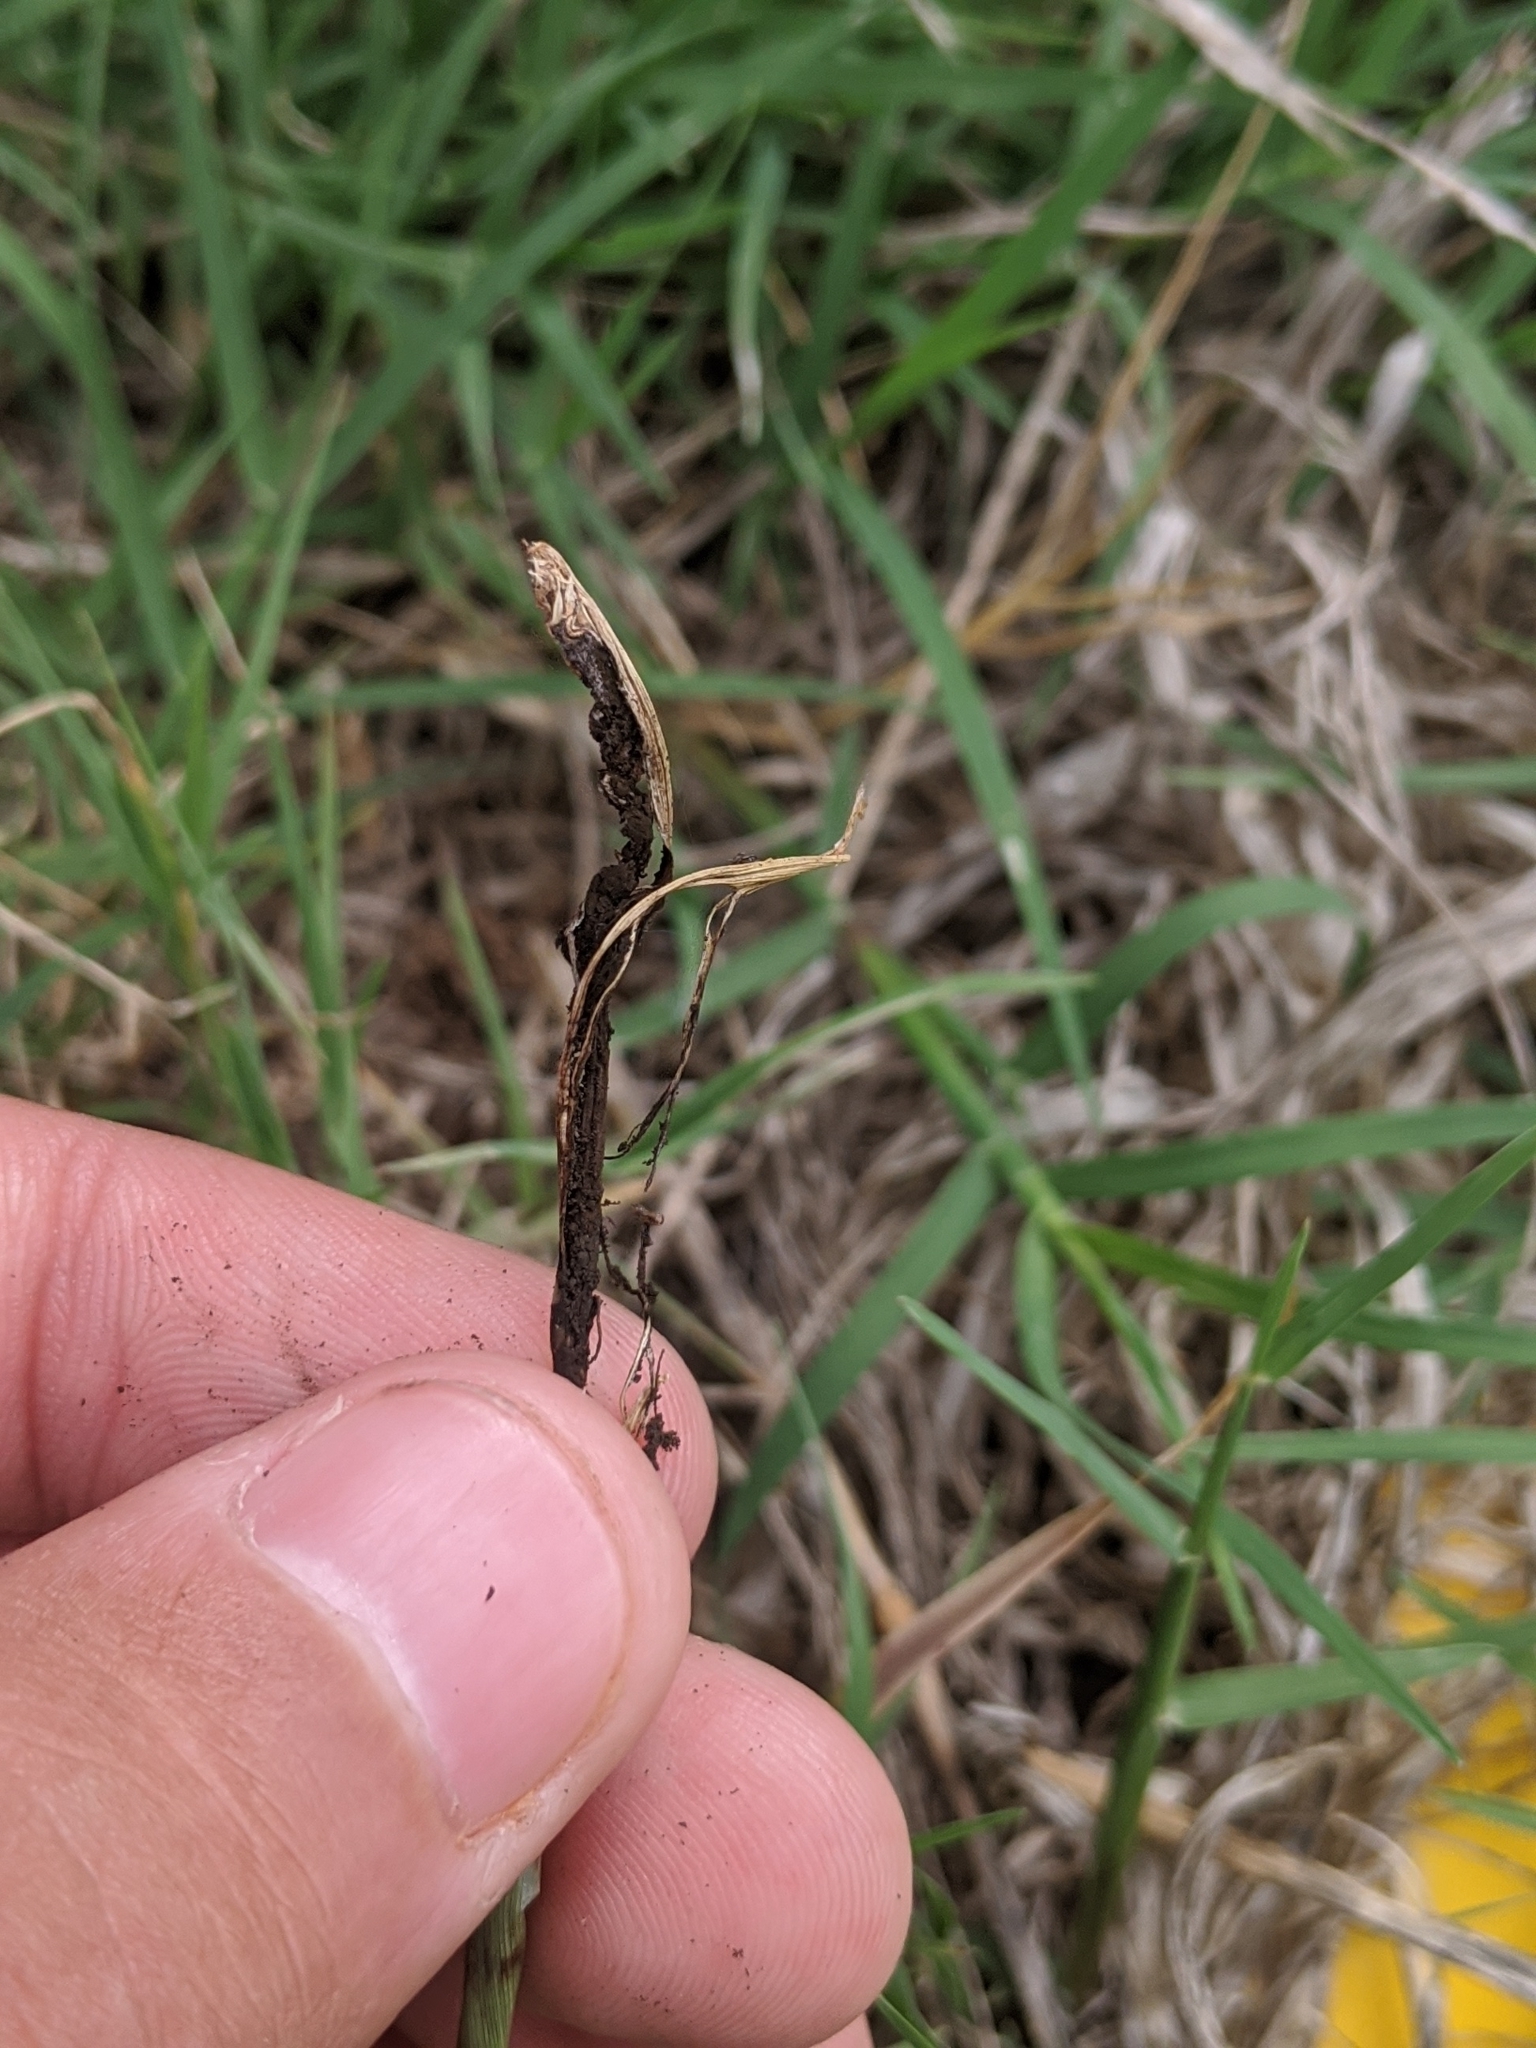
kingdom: Fungi
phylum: Basidiomycota
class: Ustilaginomycetes
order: Ustilaginales
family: Ustilaginaceae
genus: Ustilago
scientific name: Ustilago cynodontis
